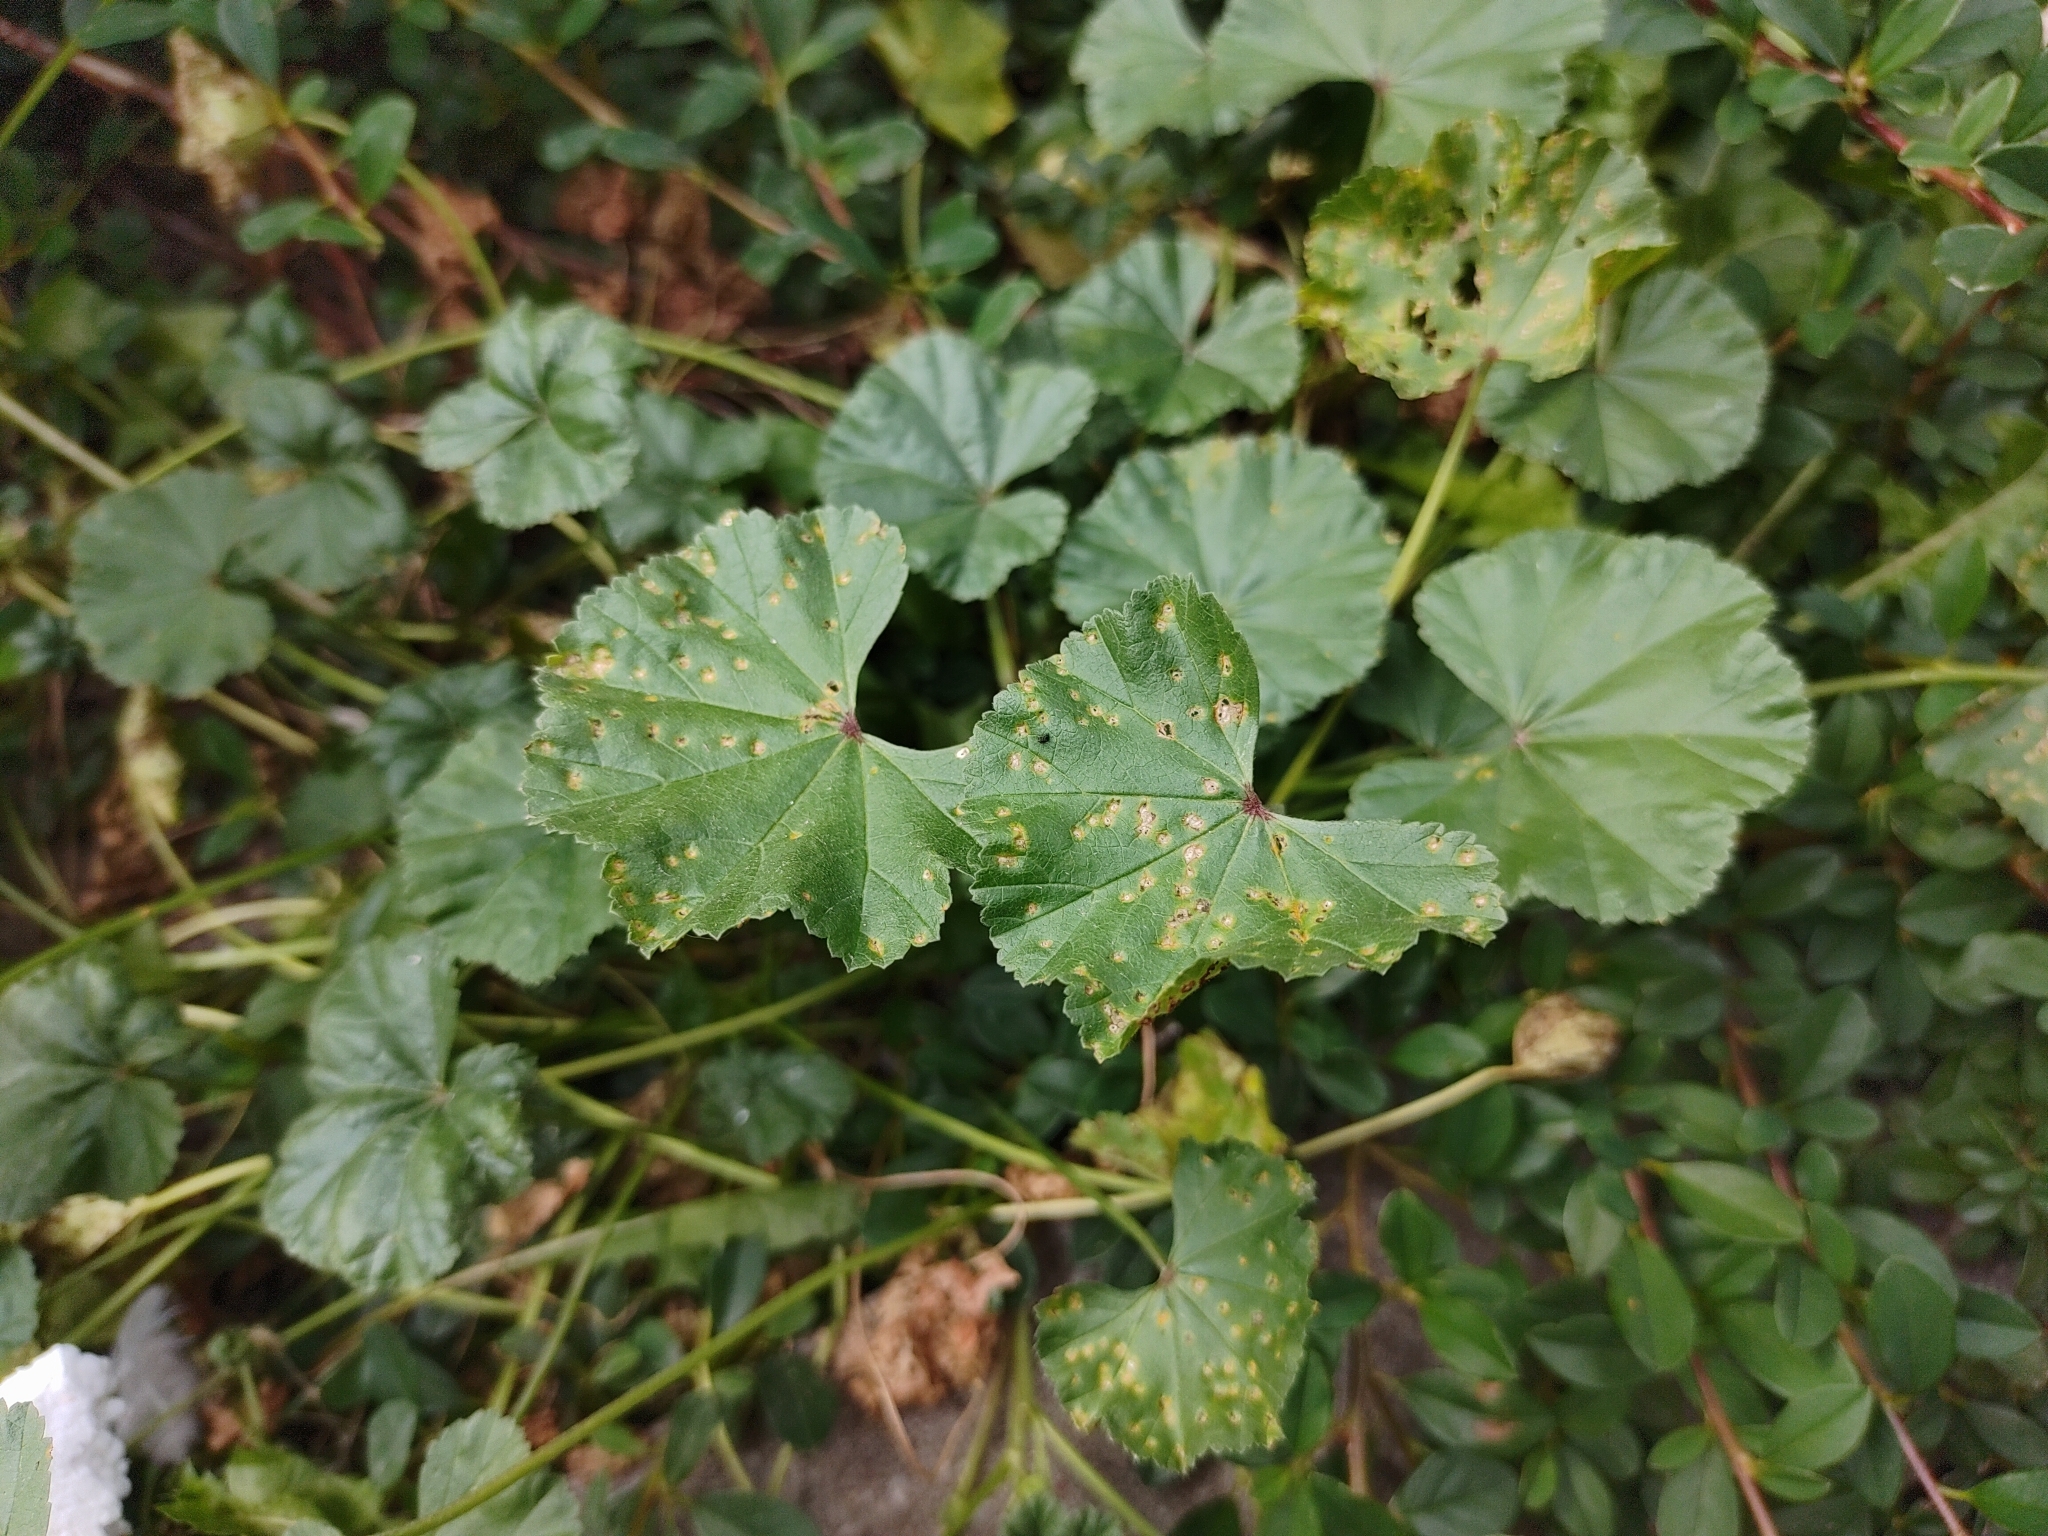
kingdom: Fungi
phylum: Basidiomycota
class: Pucciniomycetes
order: Pucciniales
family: Pucciniaceae
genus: Puccinia
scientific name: Puccinia malvacearum
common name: Hollyhock rust
